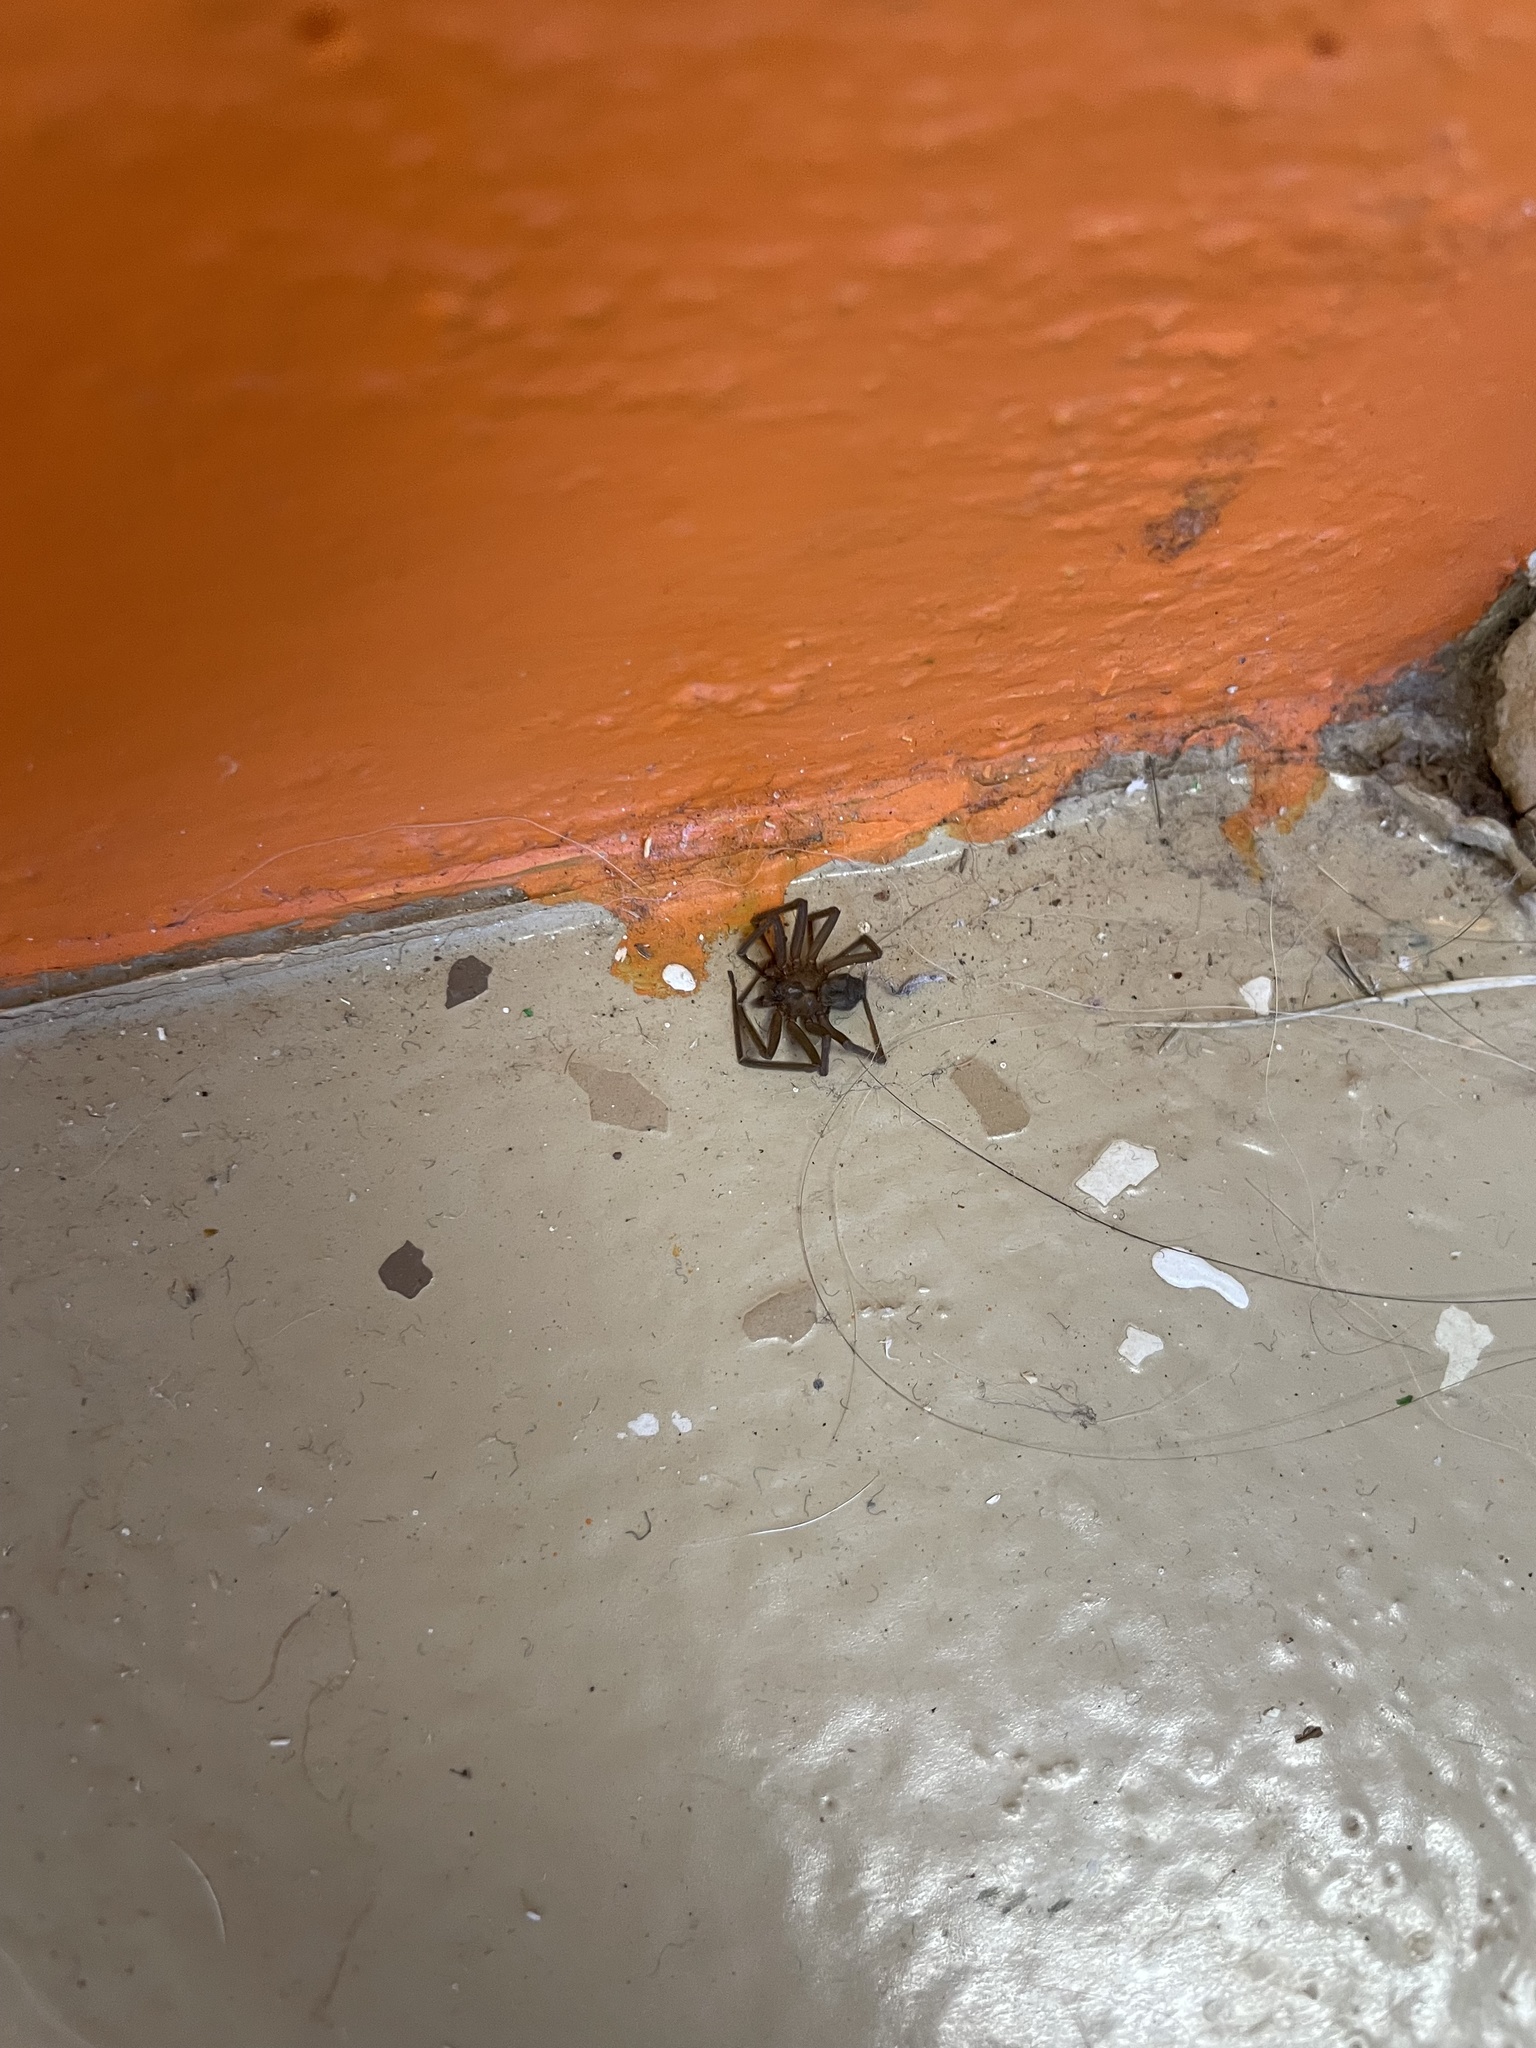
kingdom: Animalia
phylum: Arthropoda
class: Arachnida
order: Araneae
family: Sicariidae
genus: Loxosceles
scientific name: Loxosceles reclusa
